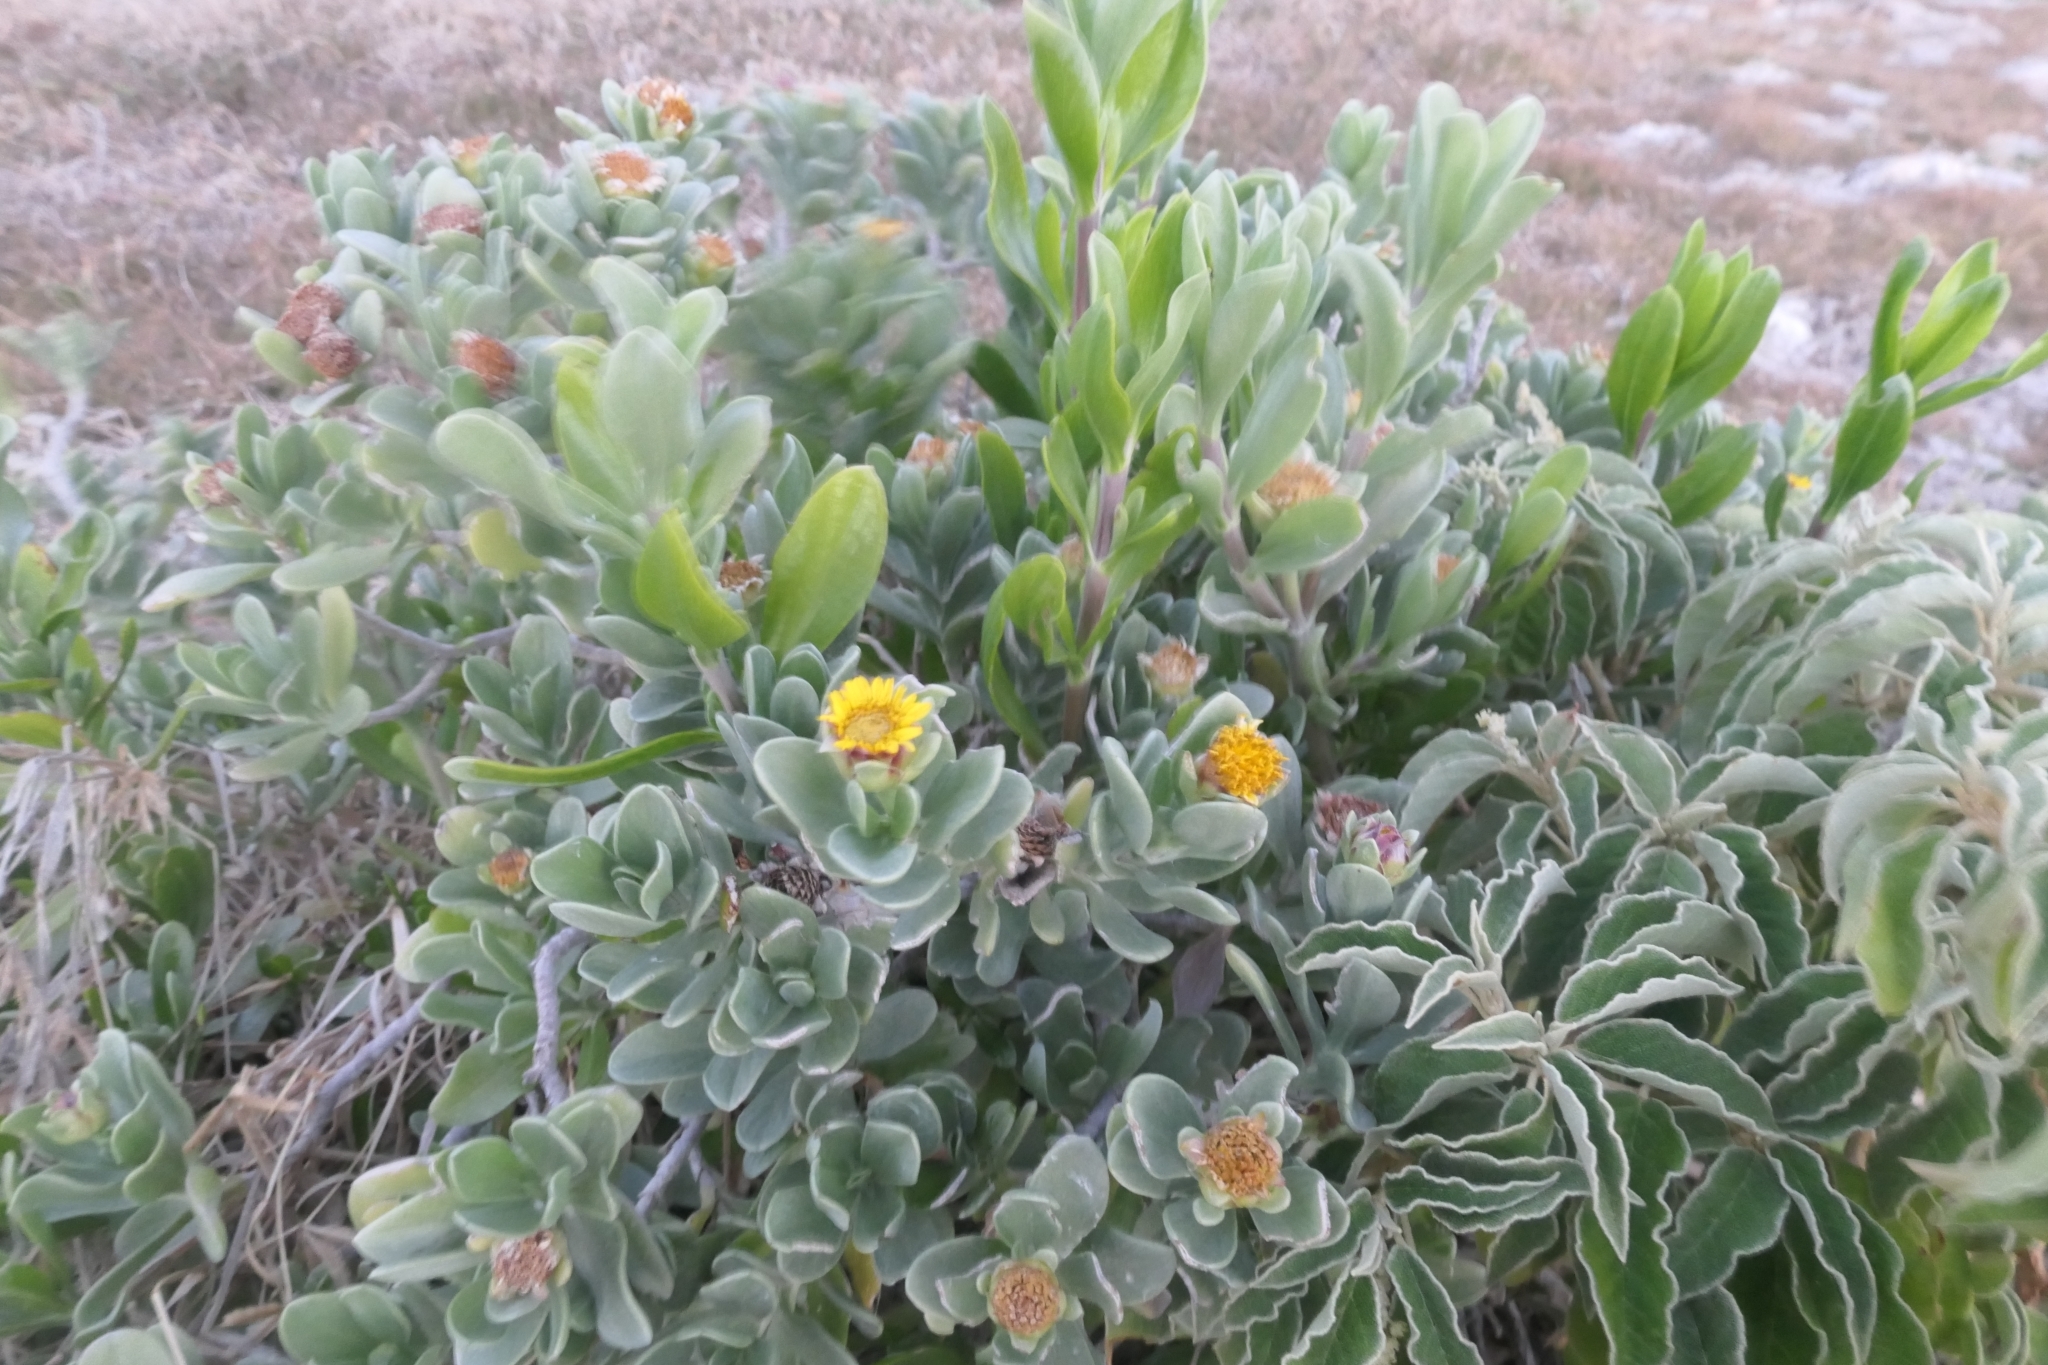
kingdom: Plantae
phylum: Tracheophyta
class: Magnoliopsida
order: Asterales
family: Asteraceae
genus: Borrichia
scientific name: Borrichia arborescens
